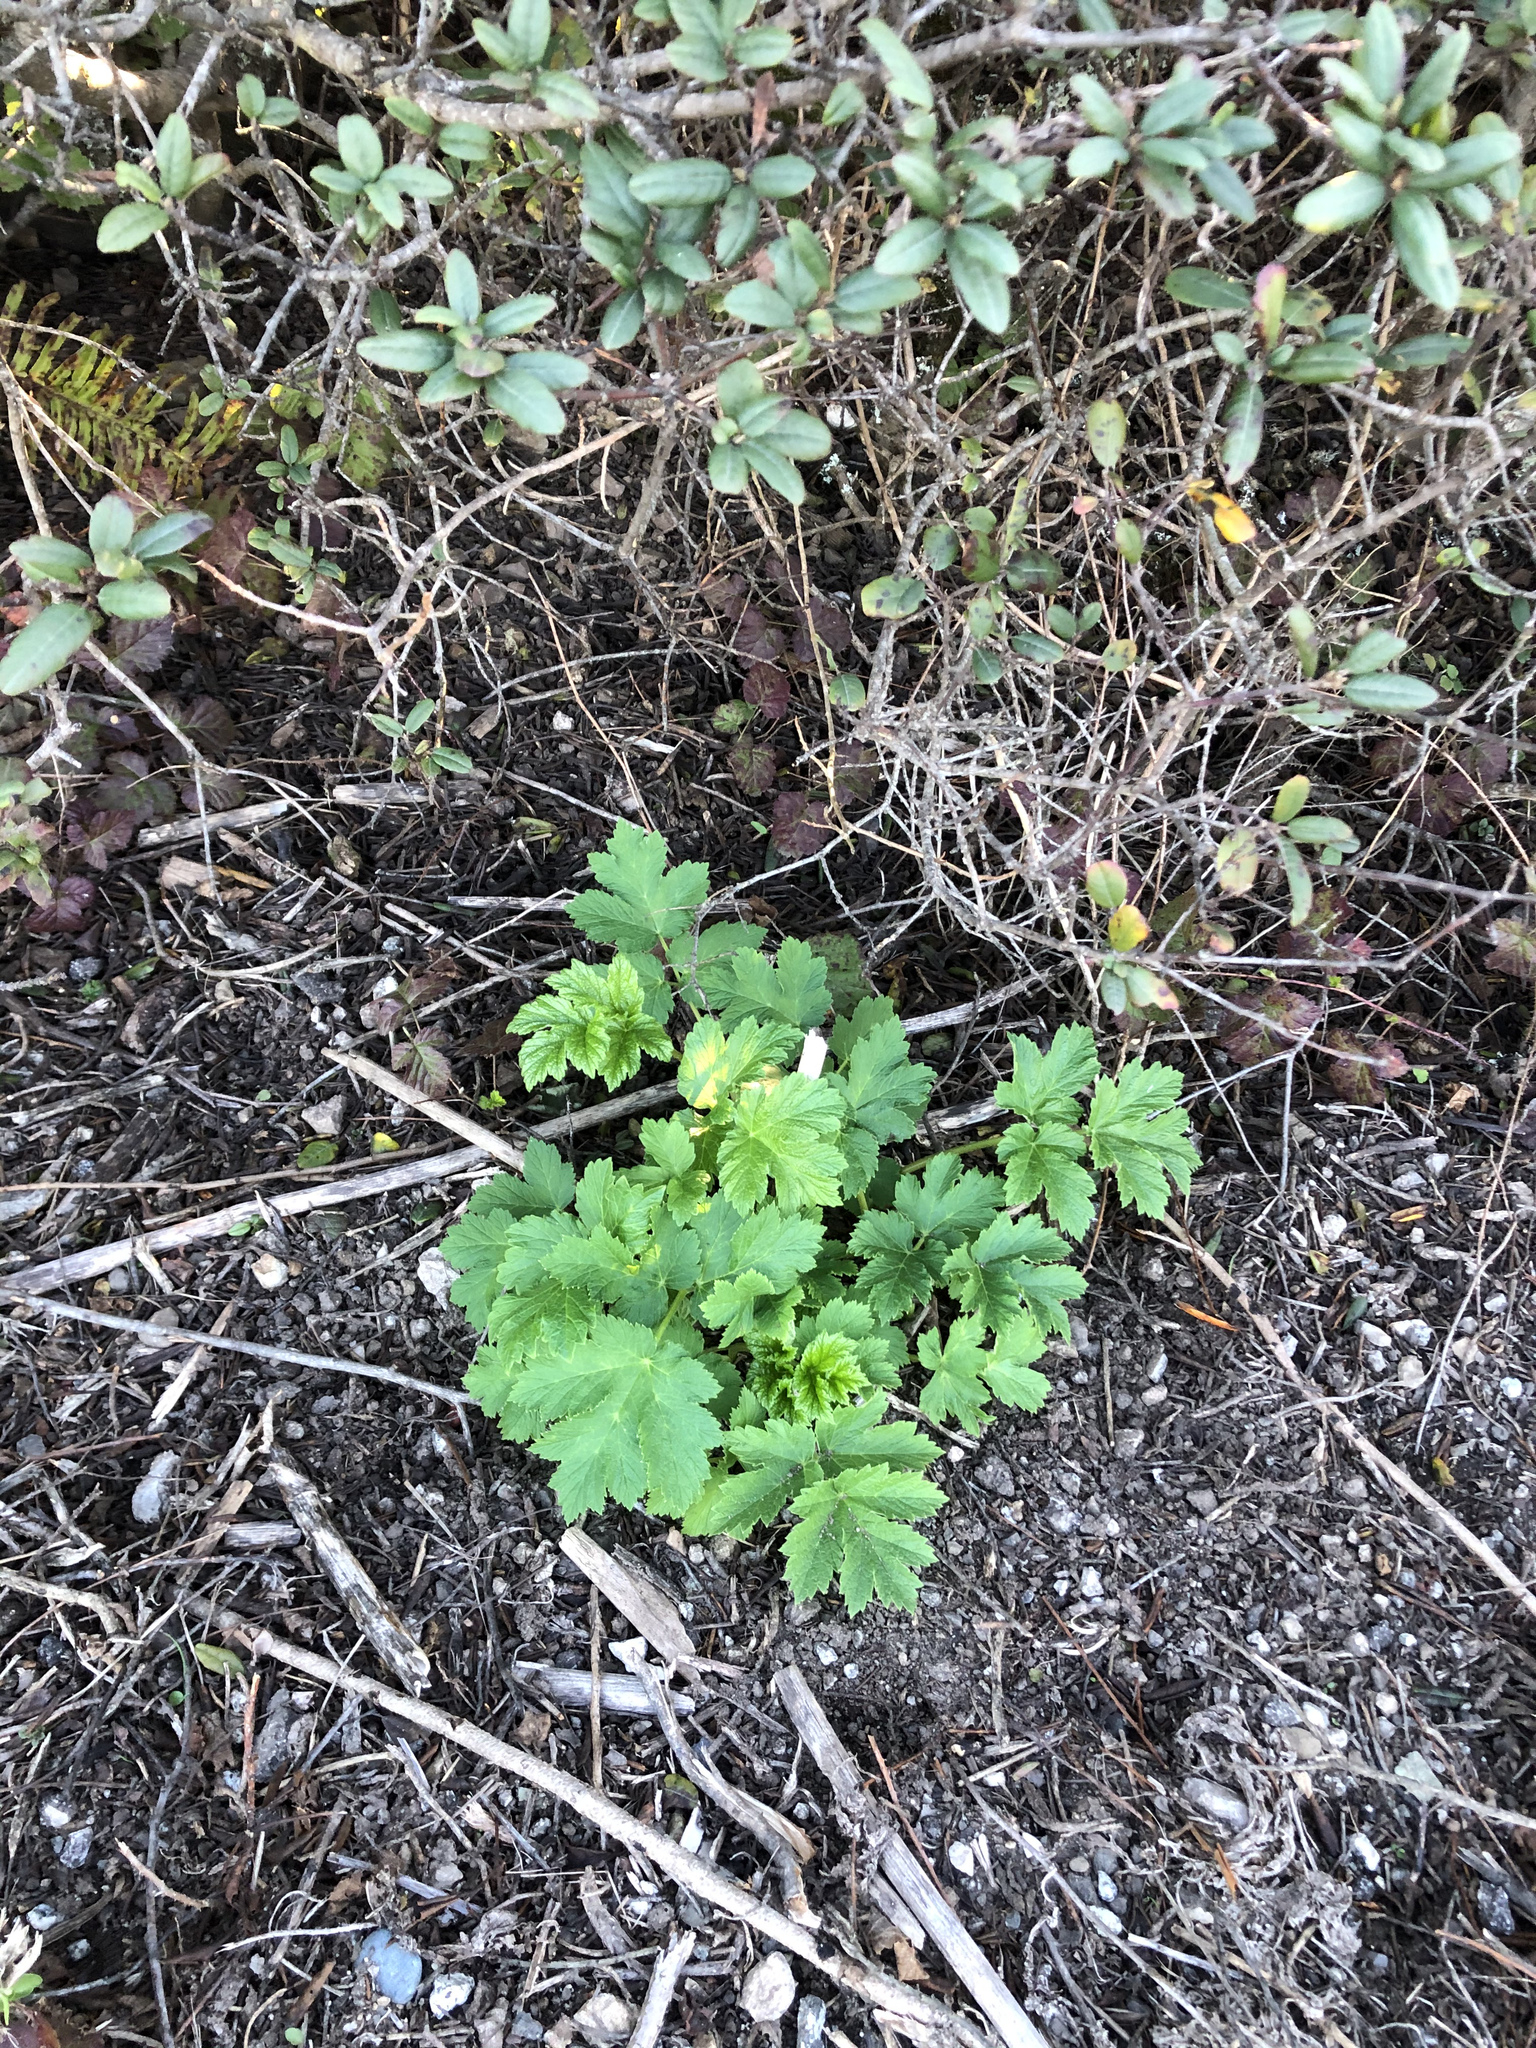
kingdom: Plantae
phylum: Tracheophyta
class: Magnoliopsida
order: Apiales
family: Apiaceae
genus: Heracleum
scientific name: Heracleum maximum
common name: American cow parsnip
